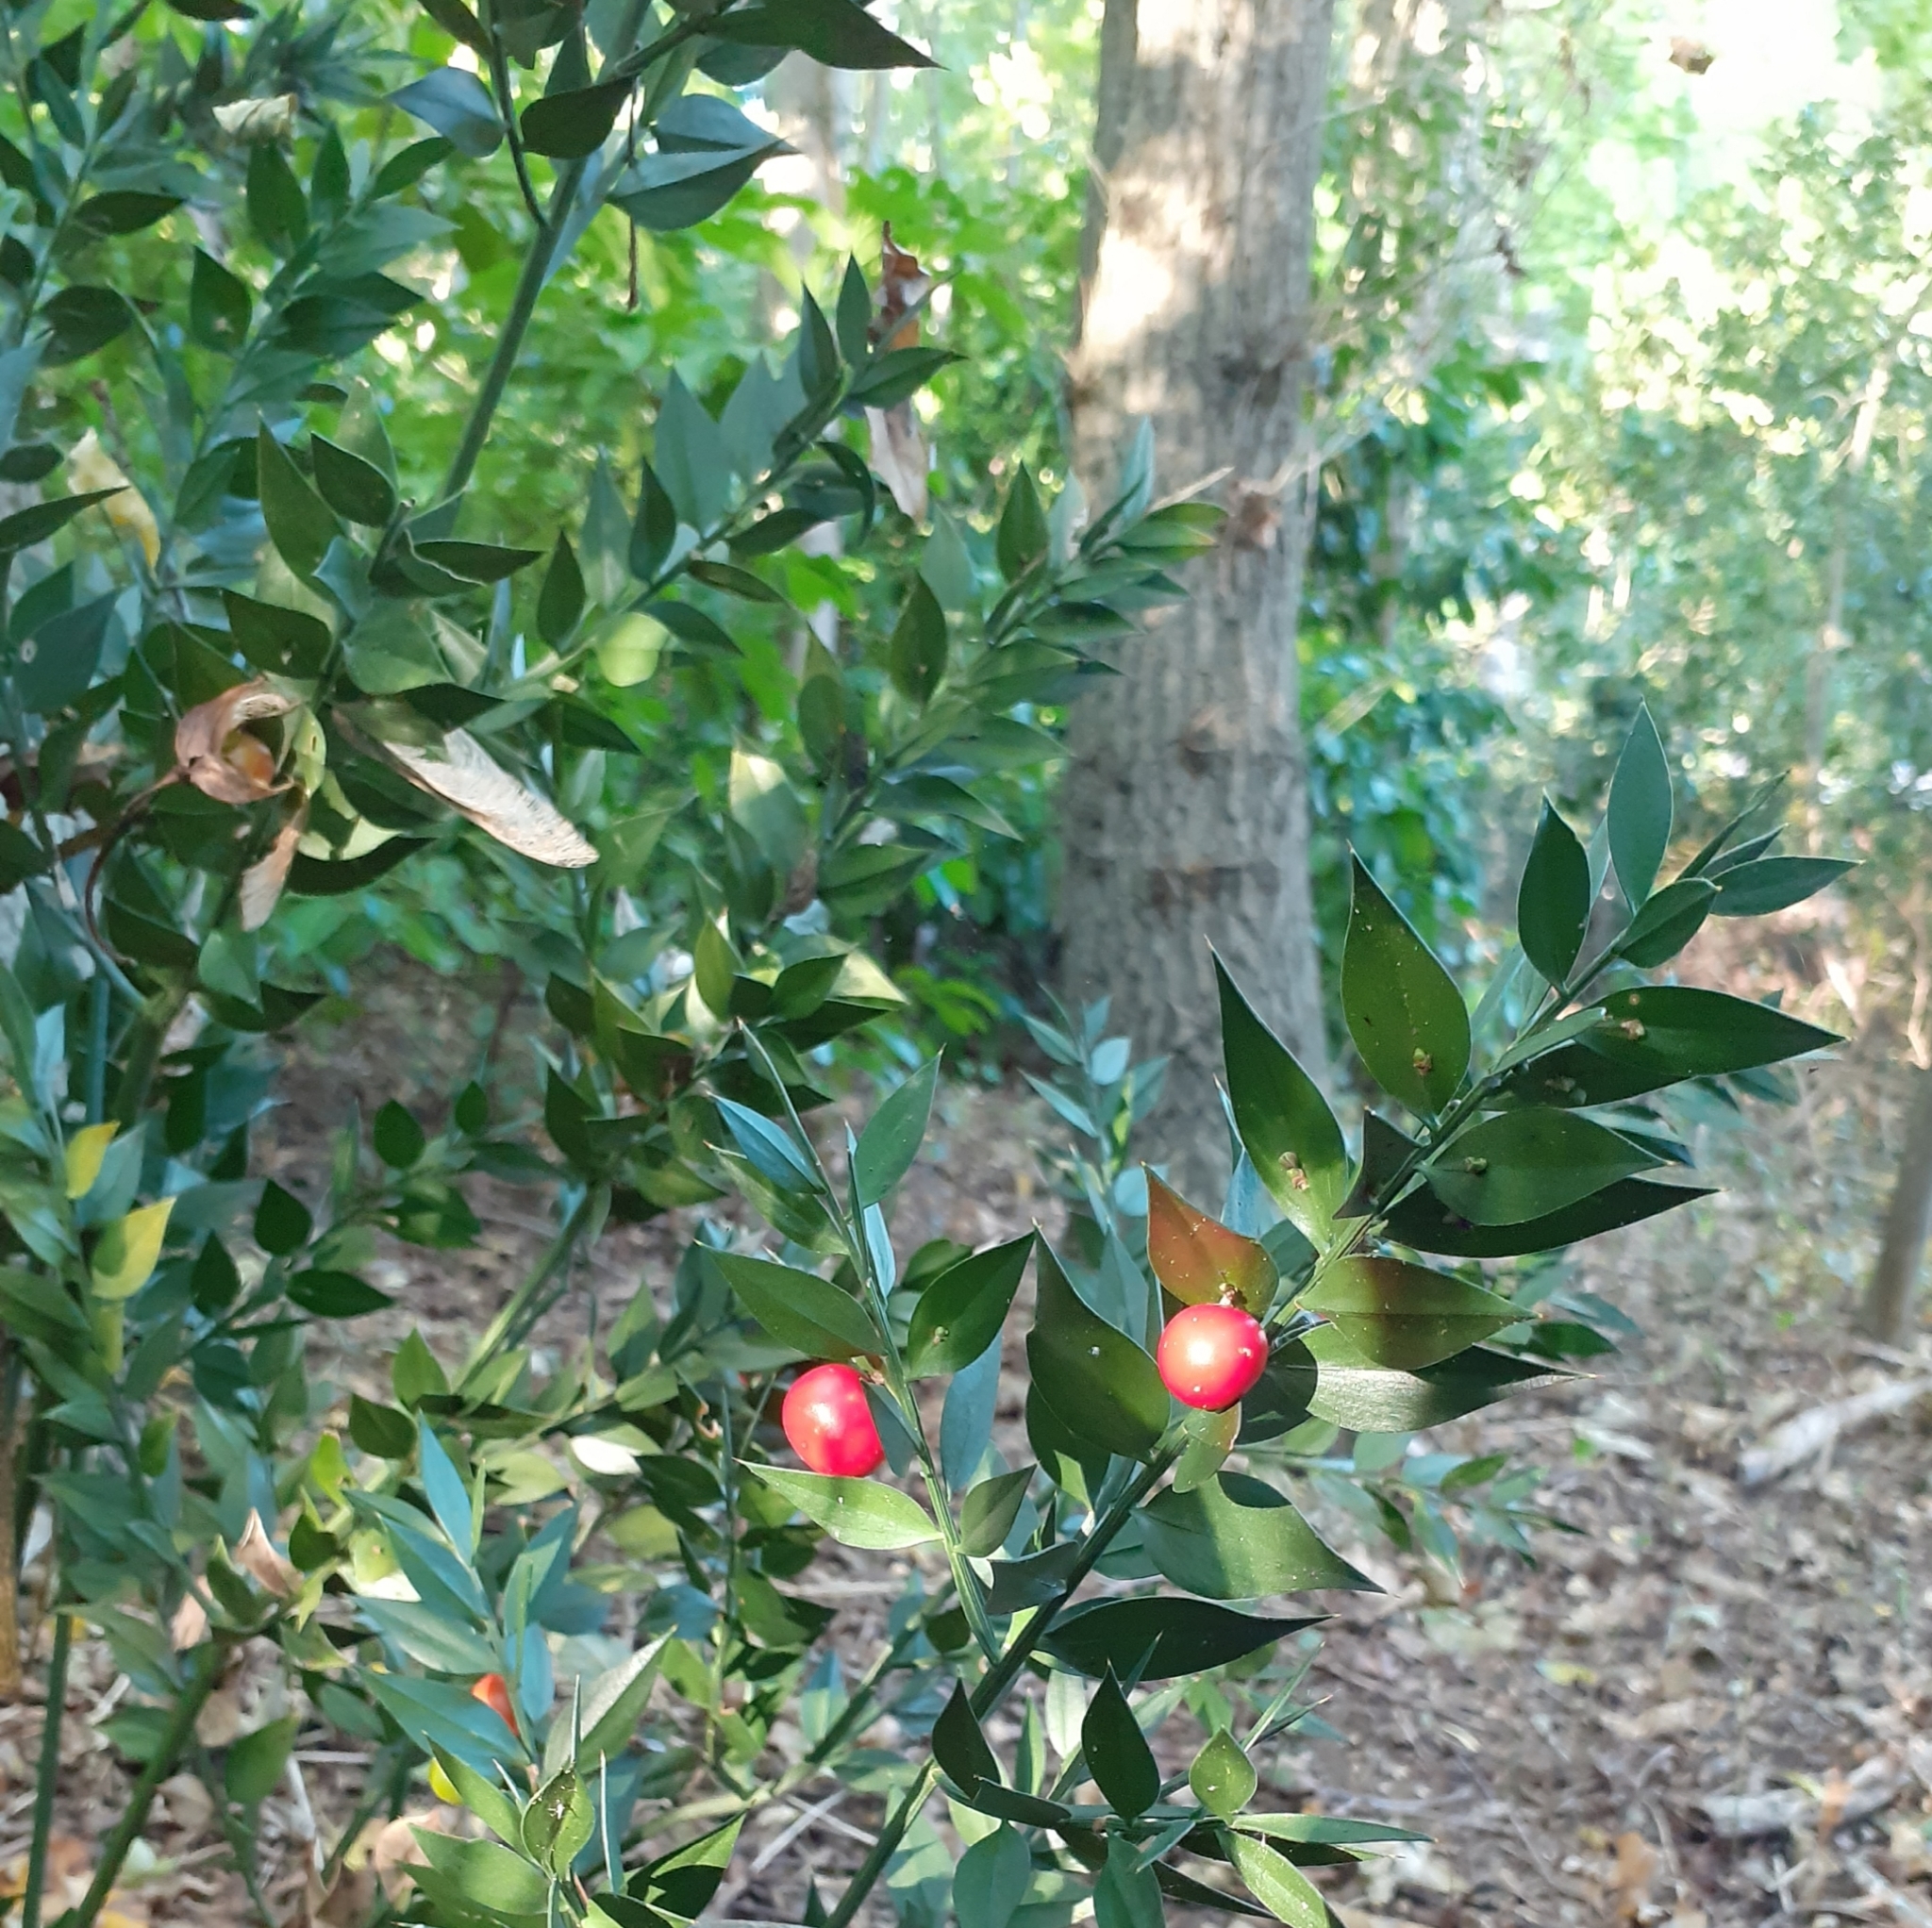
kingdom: Plantae
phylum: Tracheophyta
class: Liliopsida
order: Asparagales
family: Asparagaceae
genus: Ruscus
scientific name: Ruscus aculeatus
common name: Butcher's-broom
